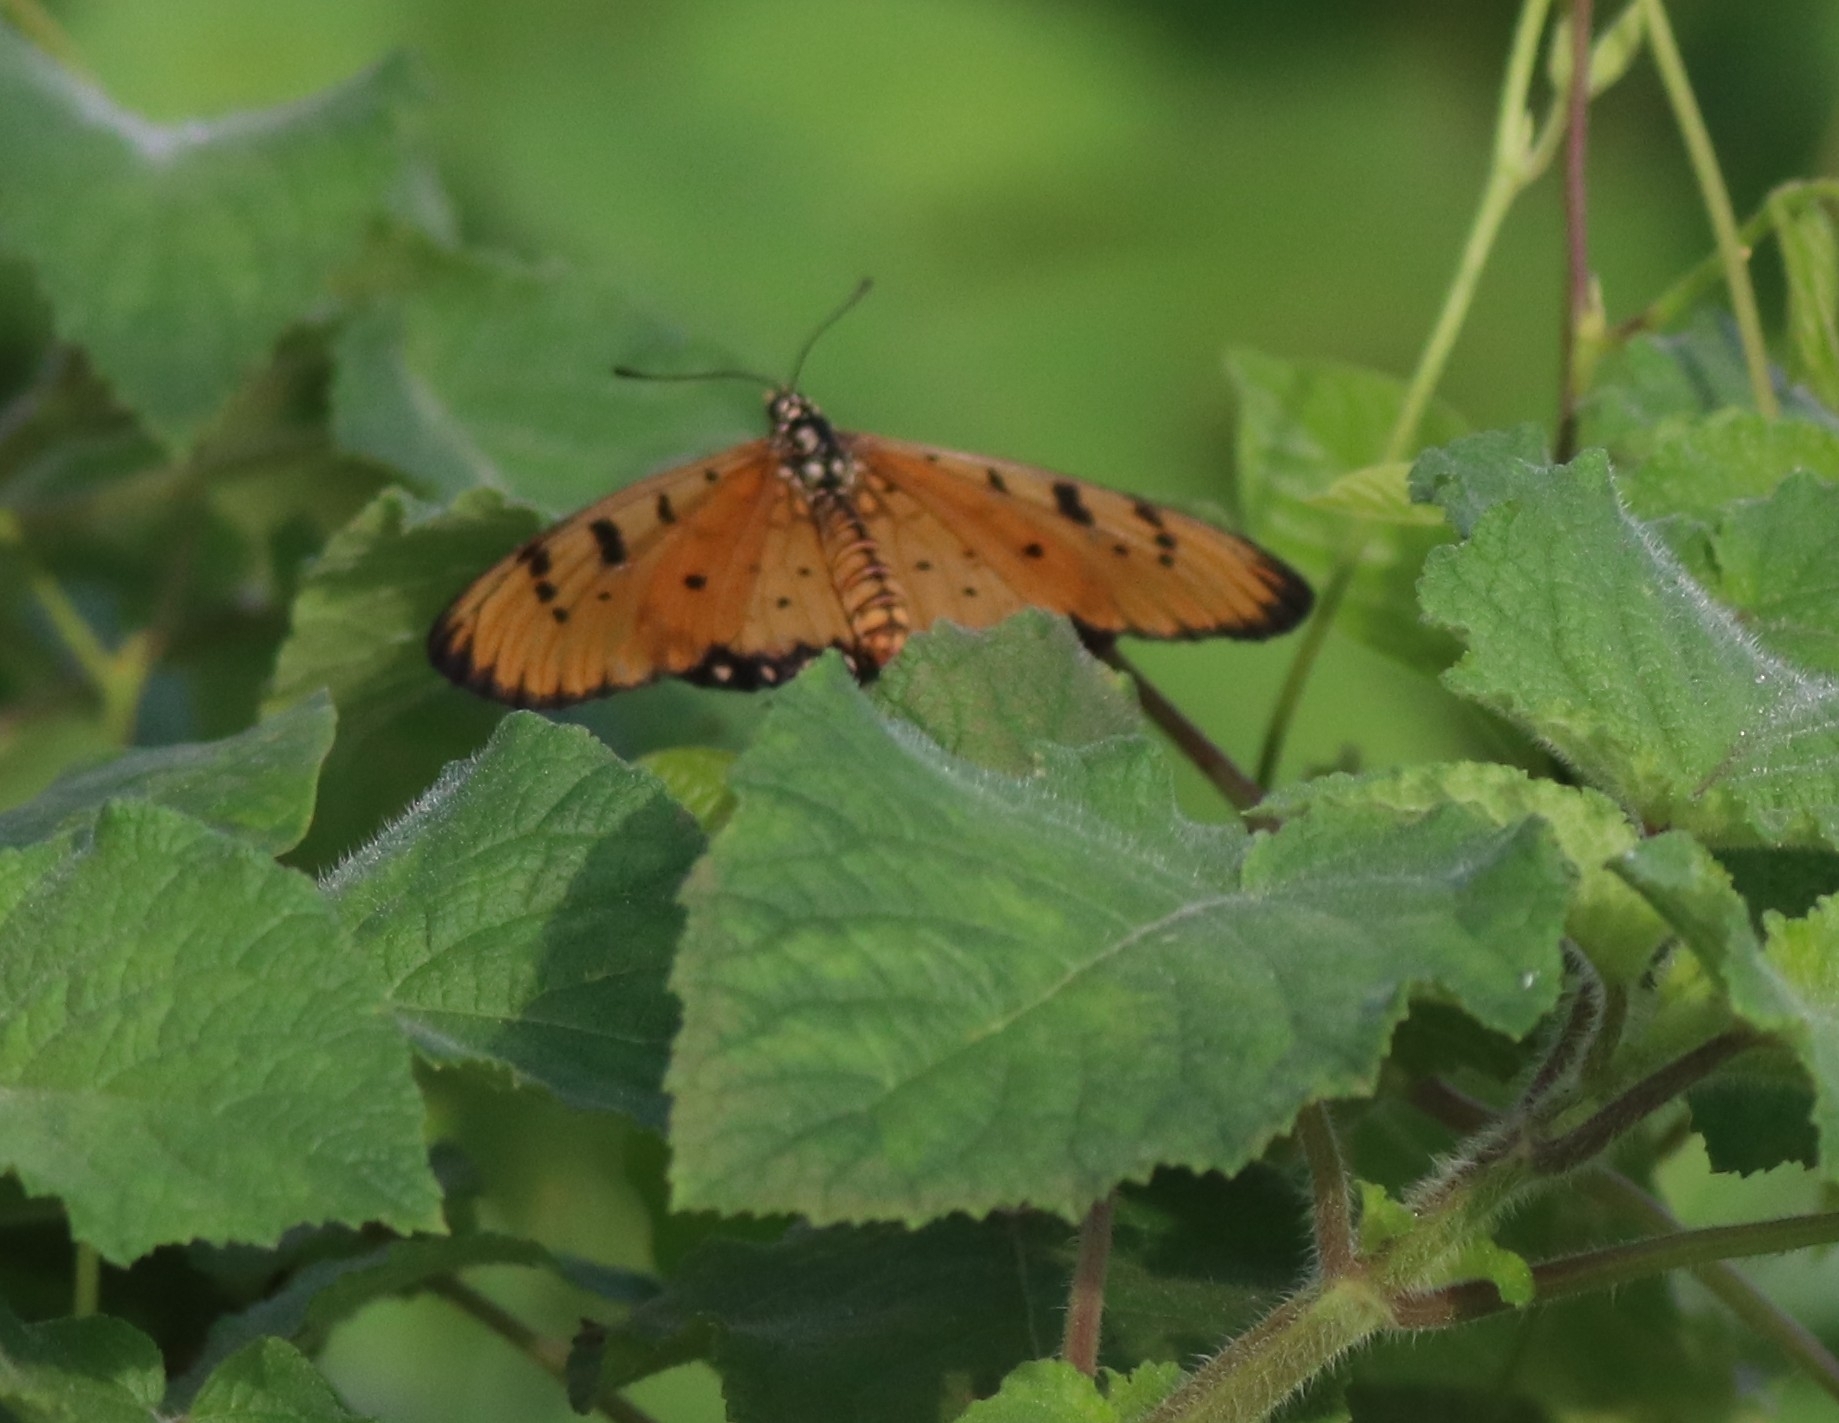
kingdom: Animalia
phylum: Arthropoda
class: Insecta
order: Lepidoptera
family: Nymphalidae
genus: Acraea
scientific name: Acraea terpsicore
